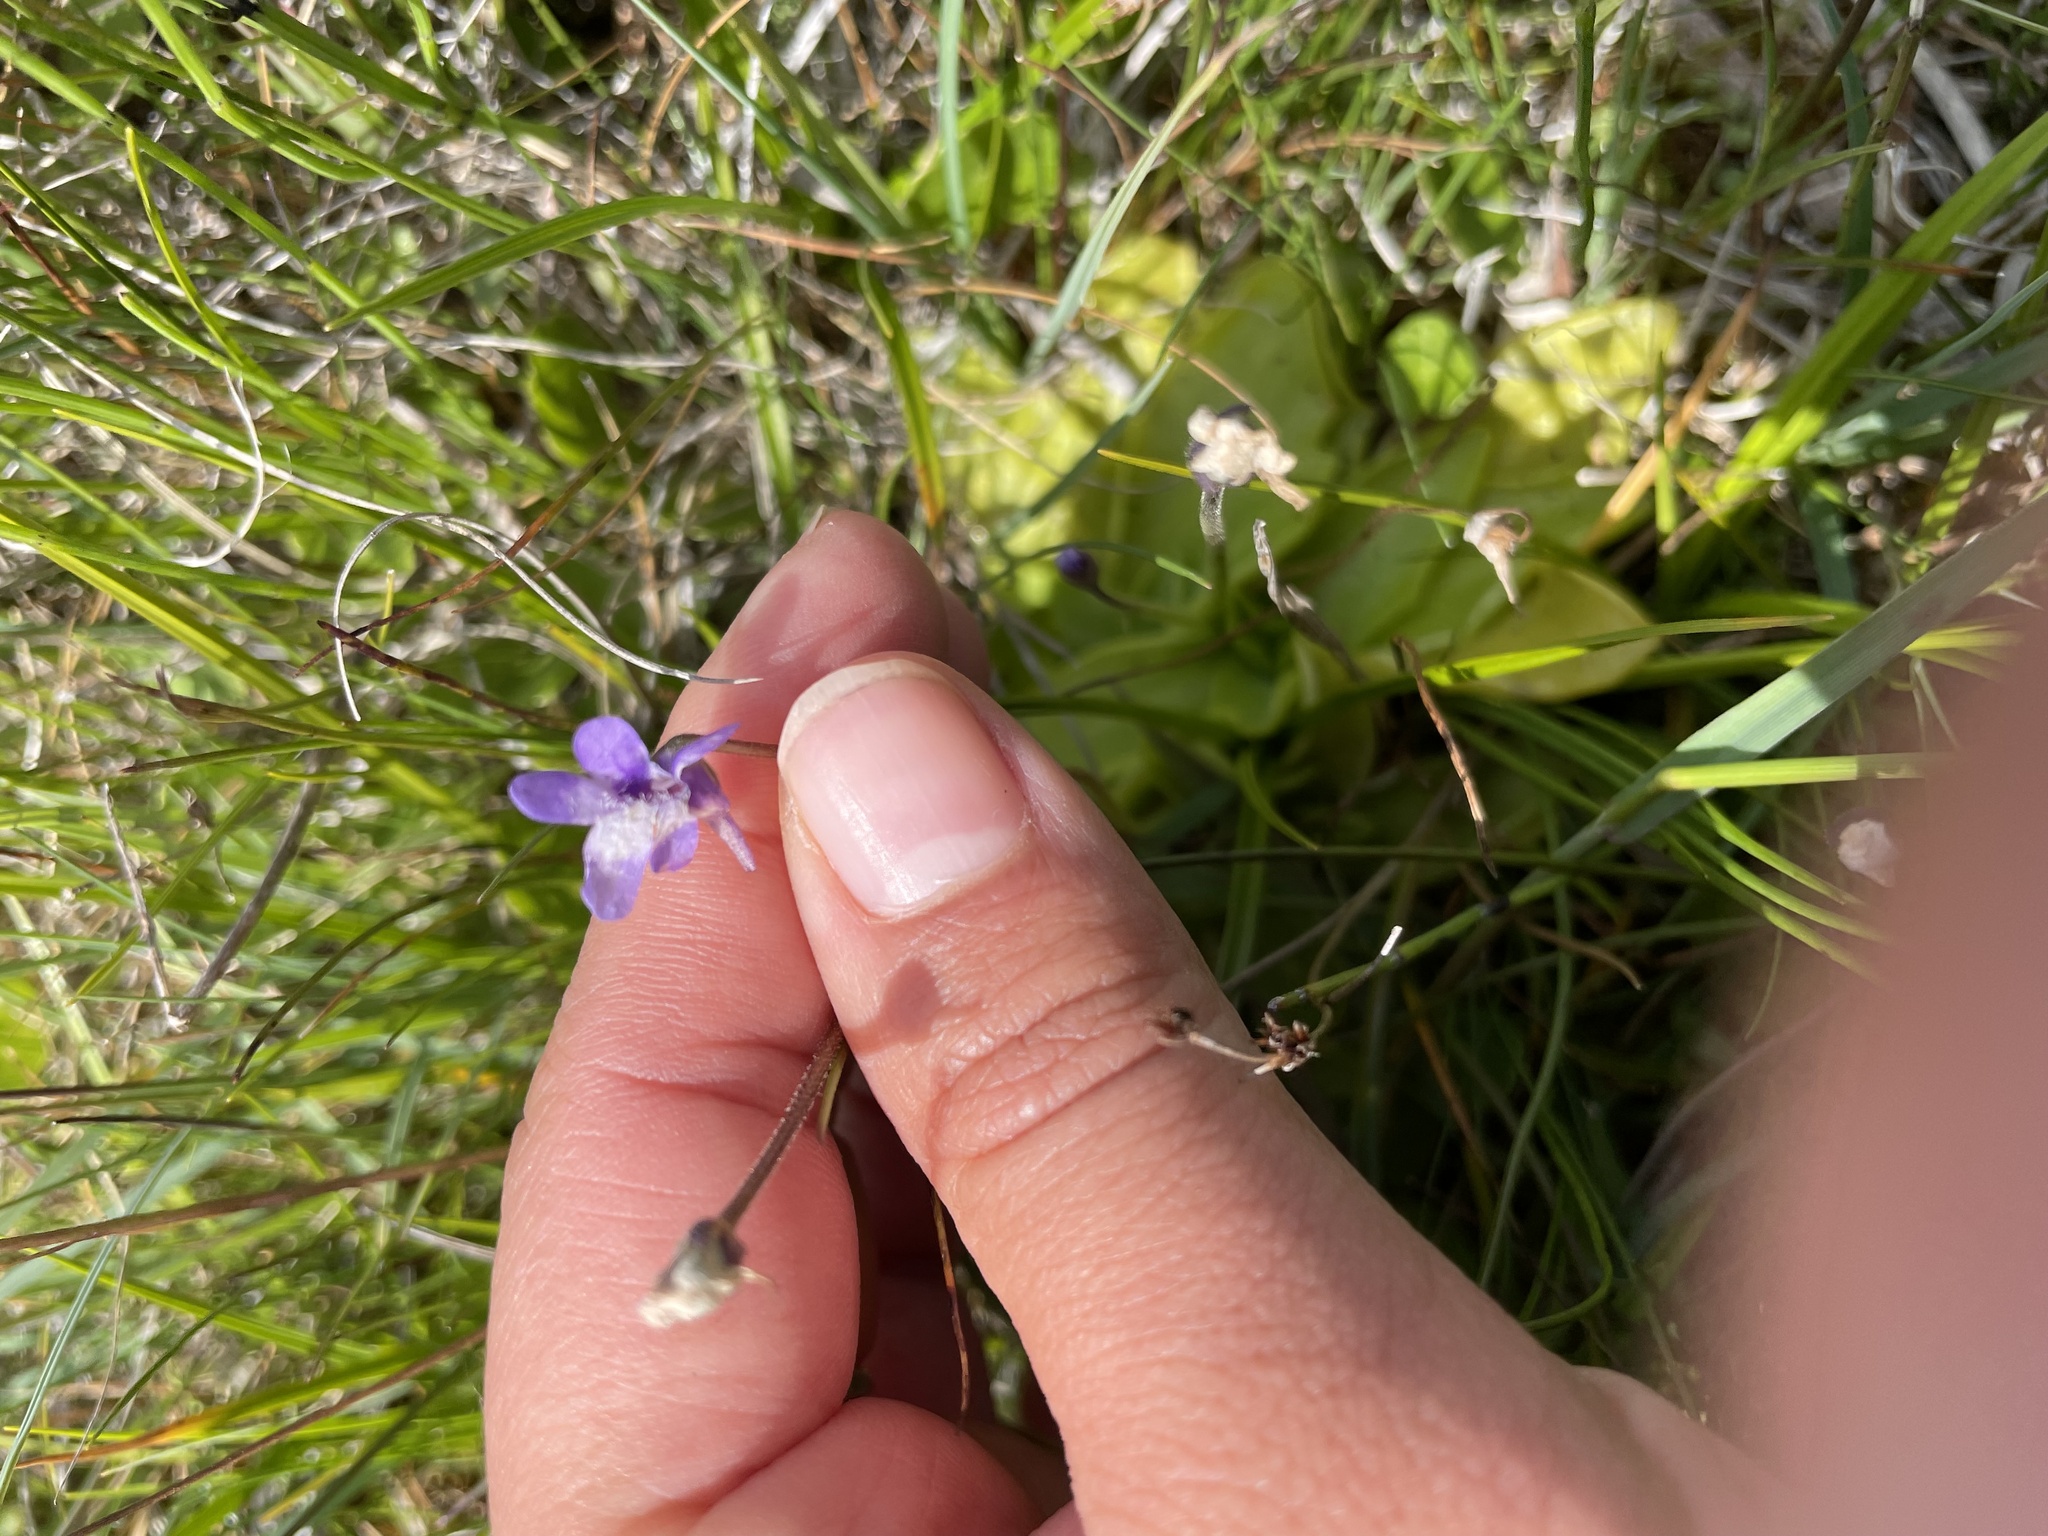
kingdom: Plantae
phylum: Tracheophyta
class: Magnoliopsida
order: Lamiales
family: Lentibulariaceae
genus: Pinguicula
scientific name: Pinguicula vulgaris
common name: Common butterwort
